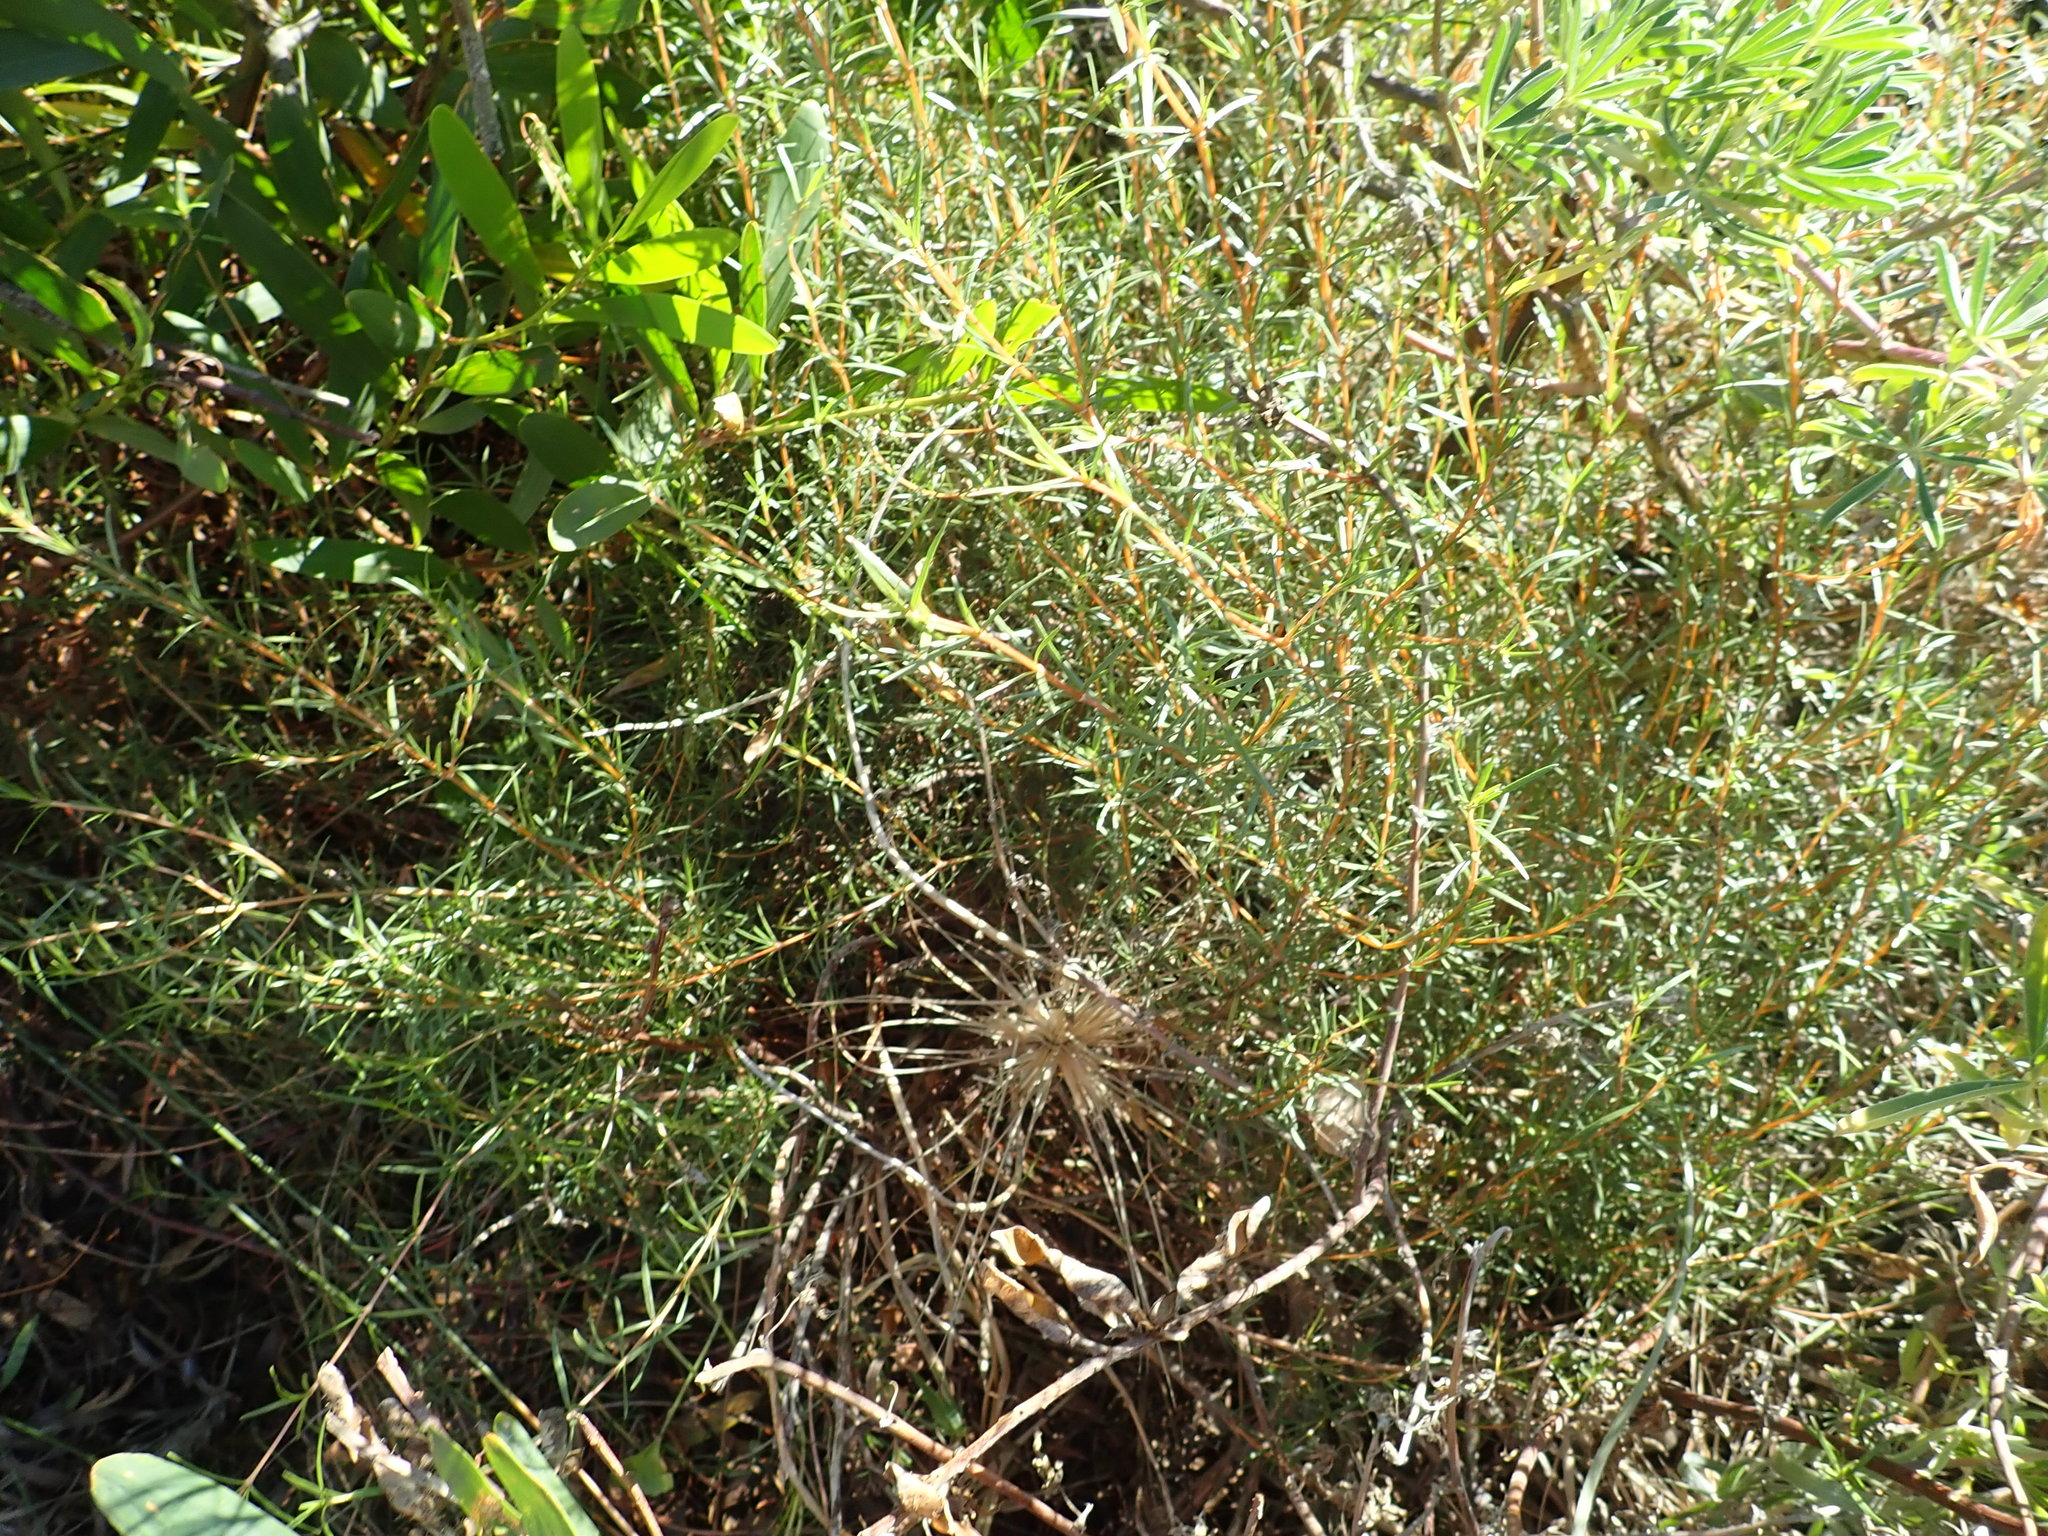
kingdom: Plantae
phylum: Tracheophyta
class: Magnoliopsida
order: Gentianales
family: Rubiaceae
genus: Coprosma
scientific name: Coprosma acerosa
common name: Sand coprosma
